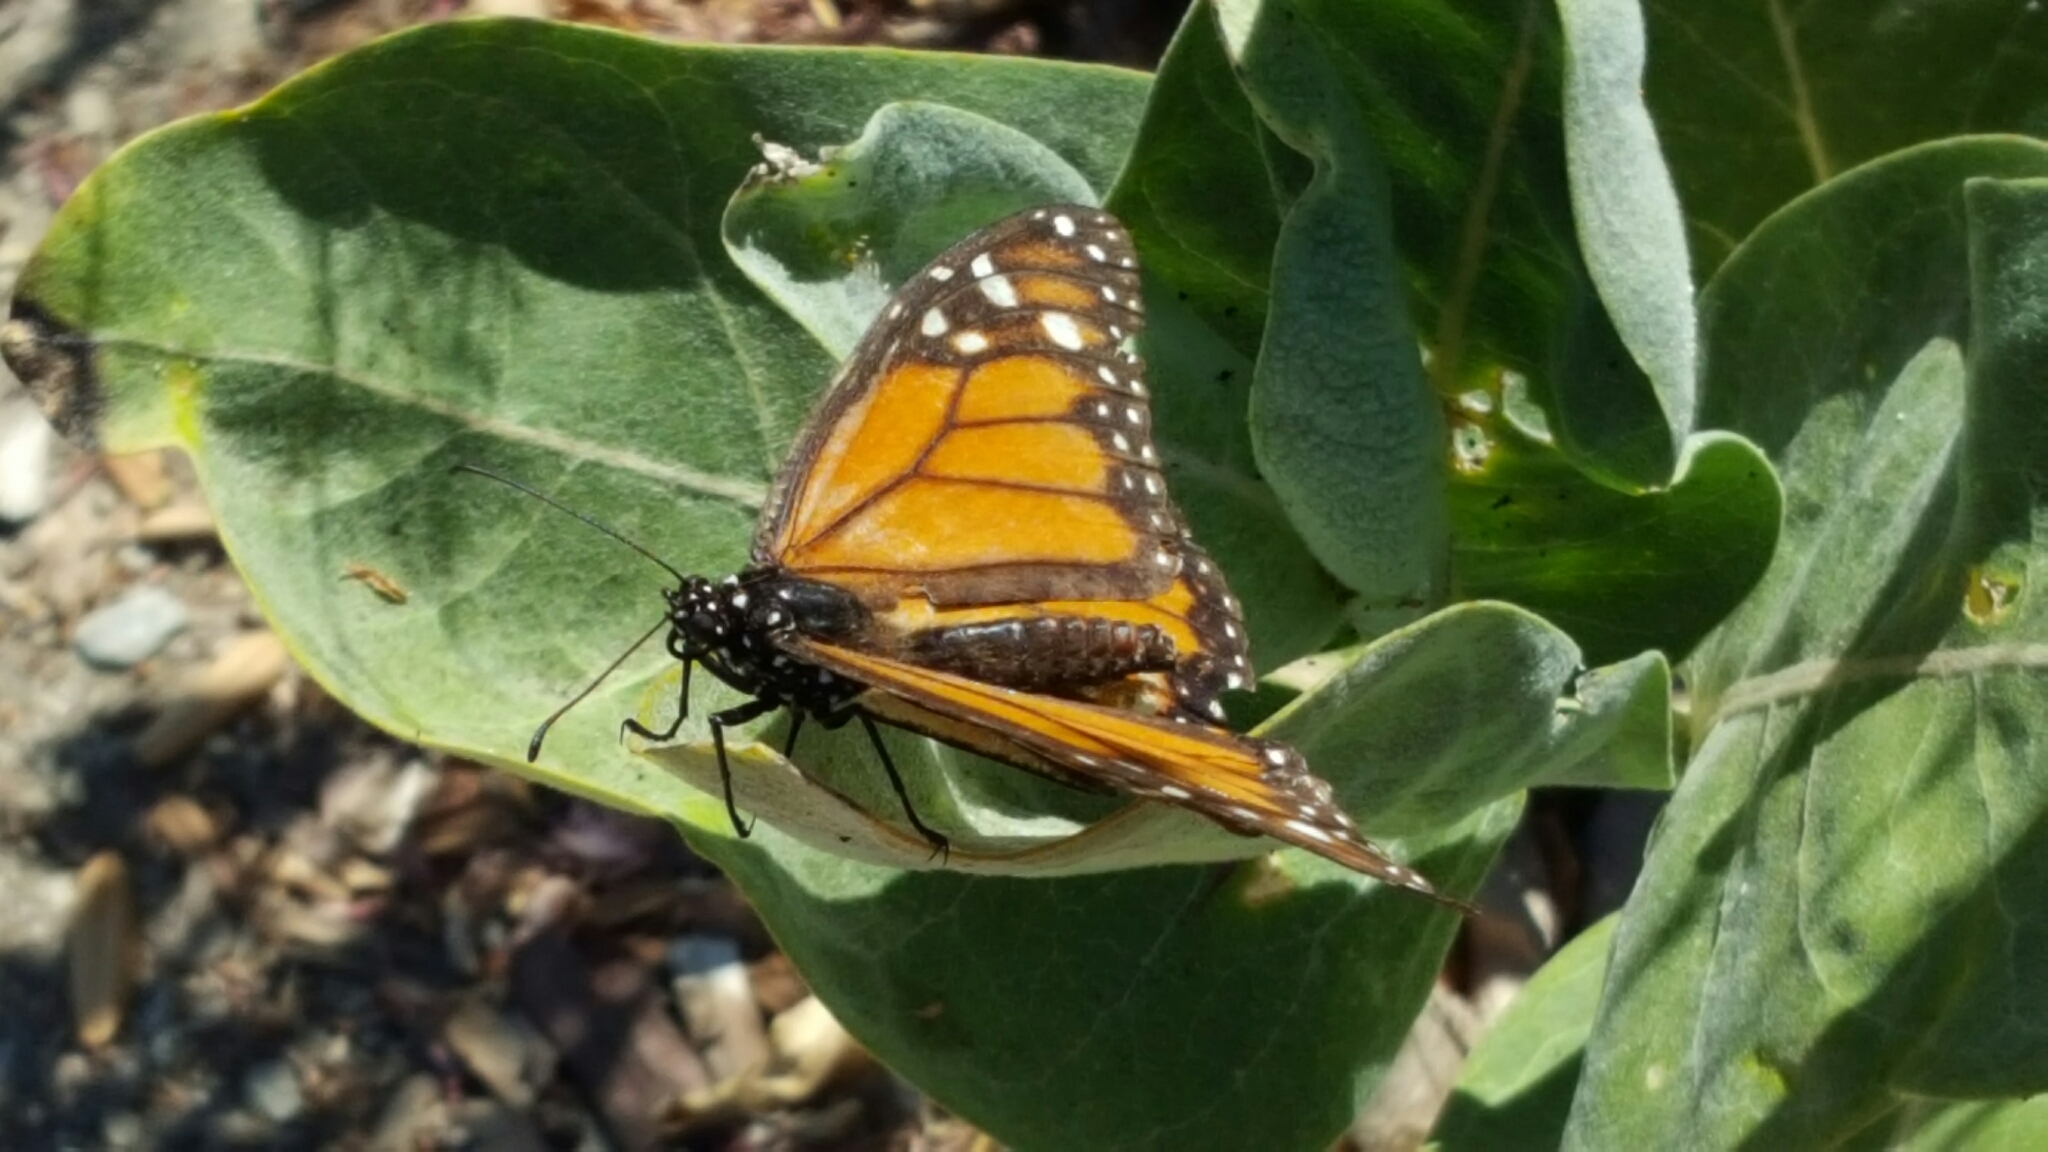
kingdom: Animalia
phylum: Arthropoda
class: Insecta
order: Lepidoptera
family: Nymphalidae
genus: Danaus
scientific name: Danaus plexippus
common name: Monarch
